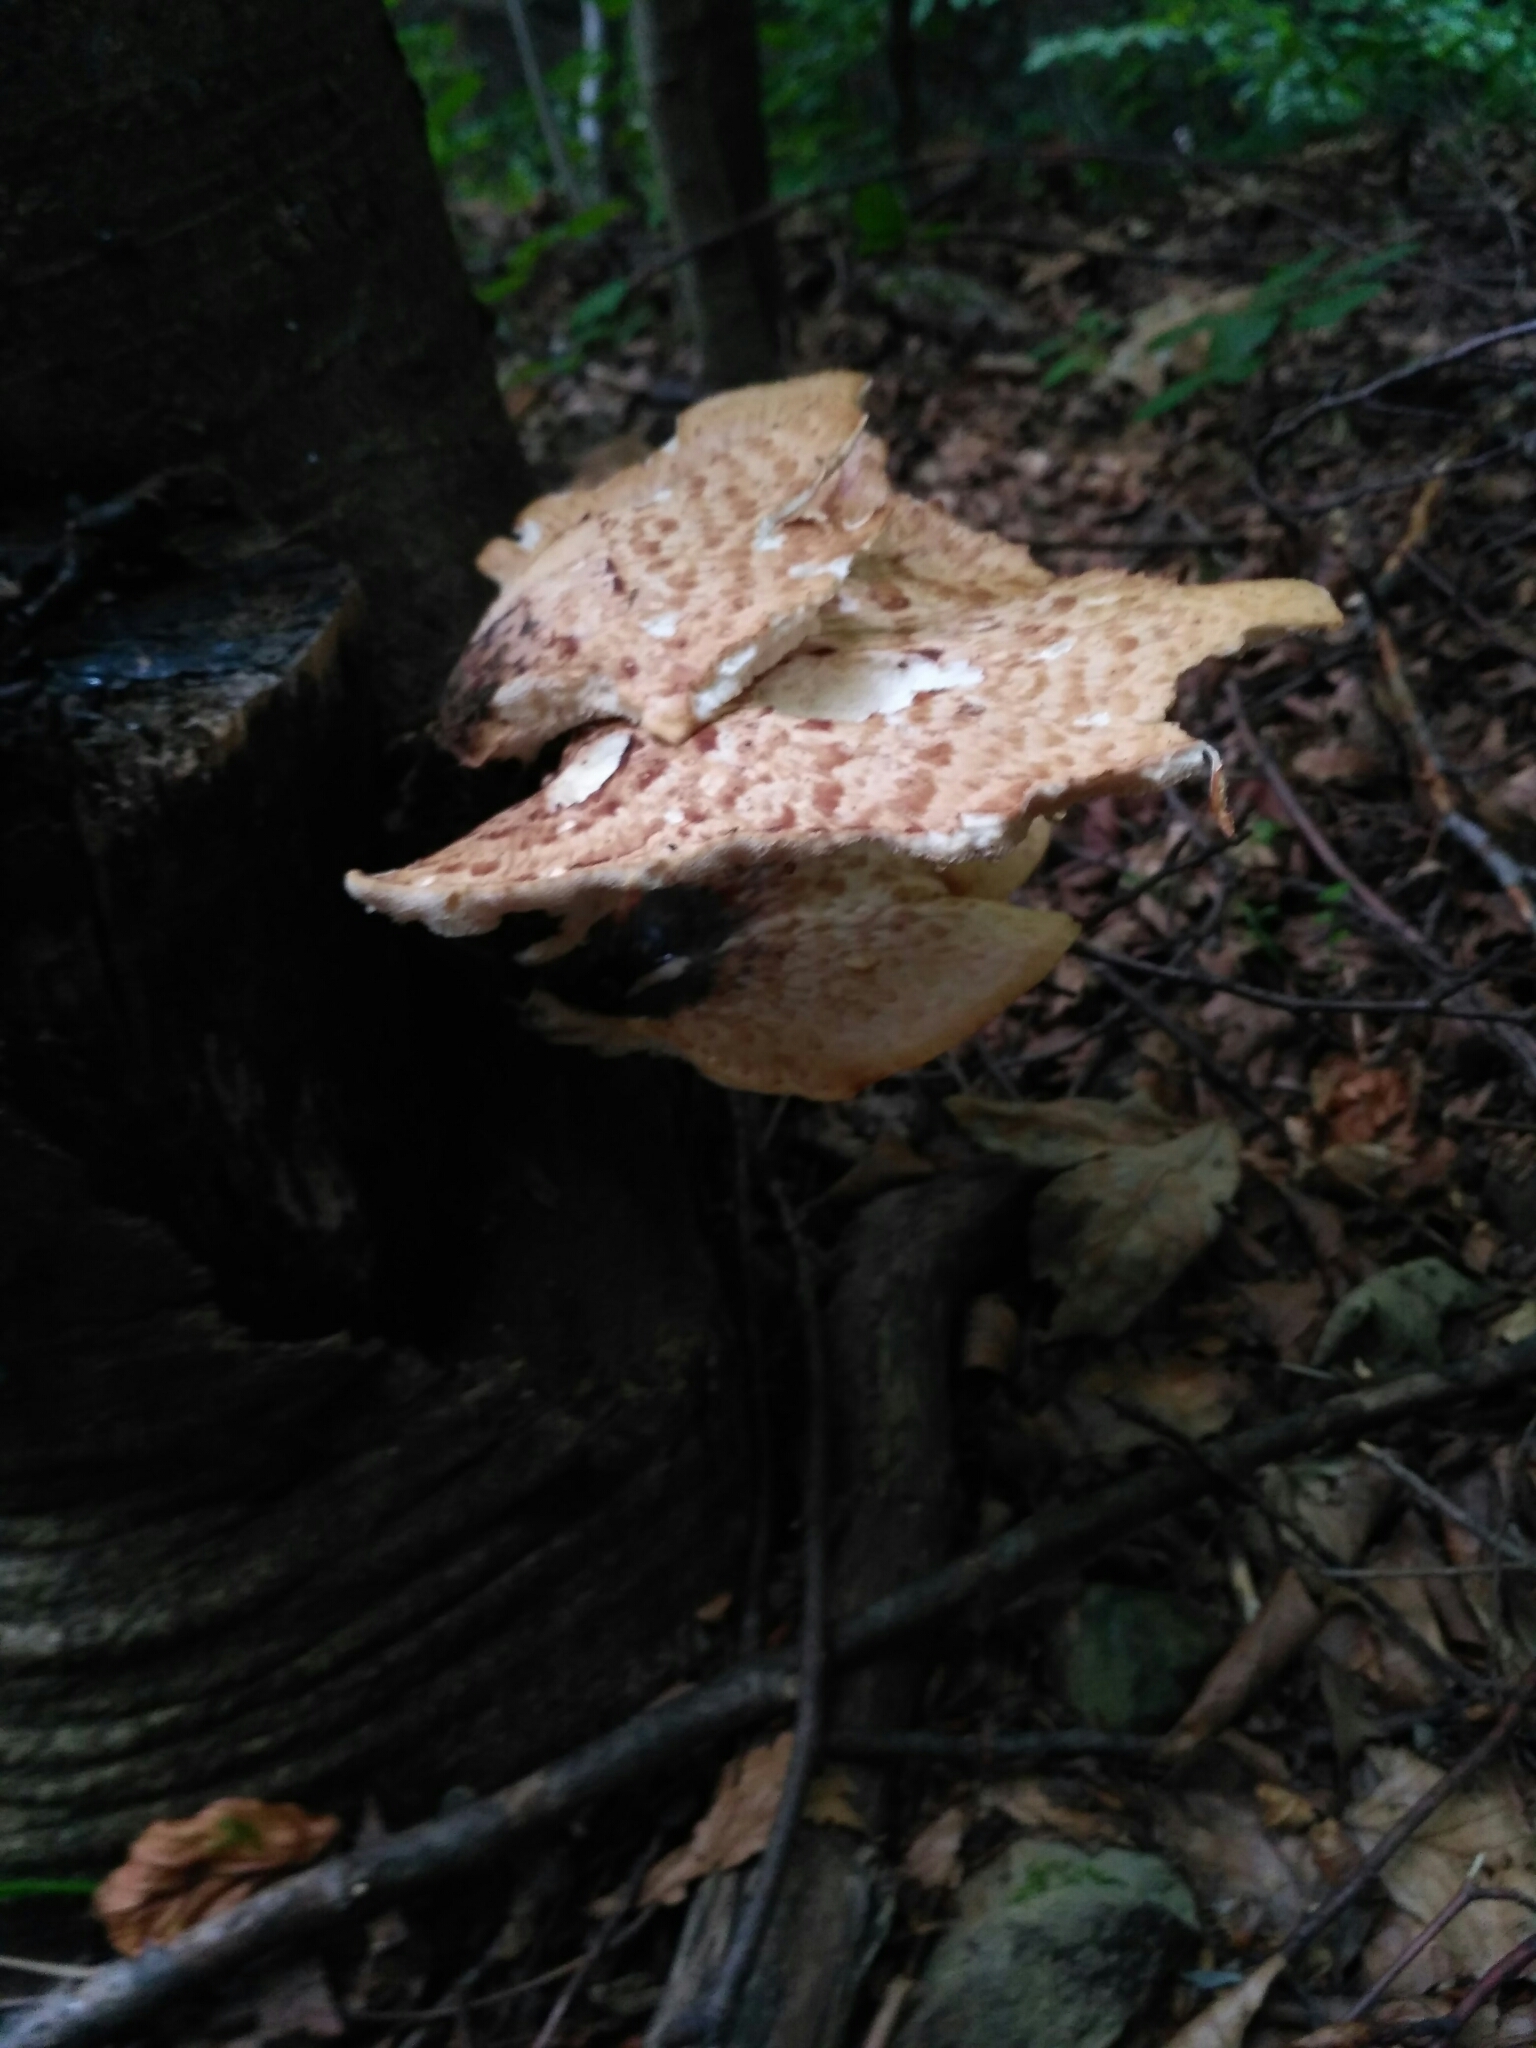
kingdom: Fungi
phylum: Basidiomycota
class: Agaricomycetes
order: Polyporales
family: Polyporaceae
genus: Cerioporus
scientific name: Cerioporus squamosus
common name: Dryad's saddle
